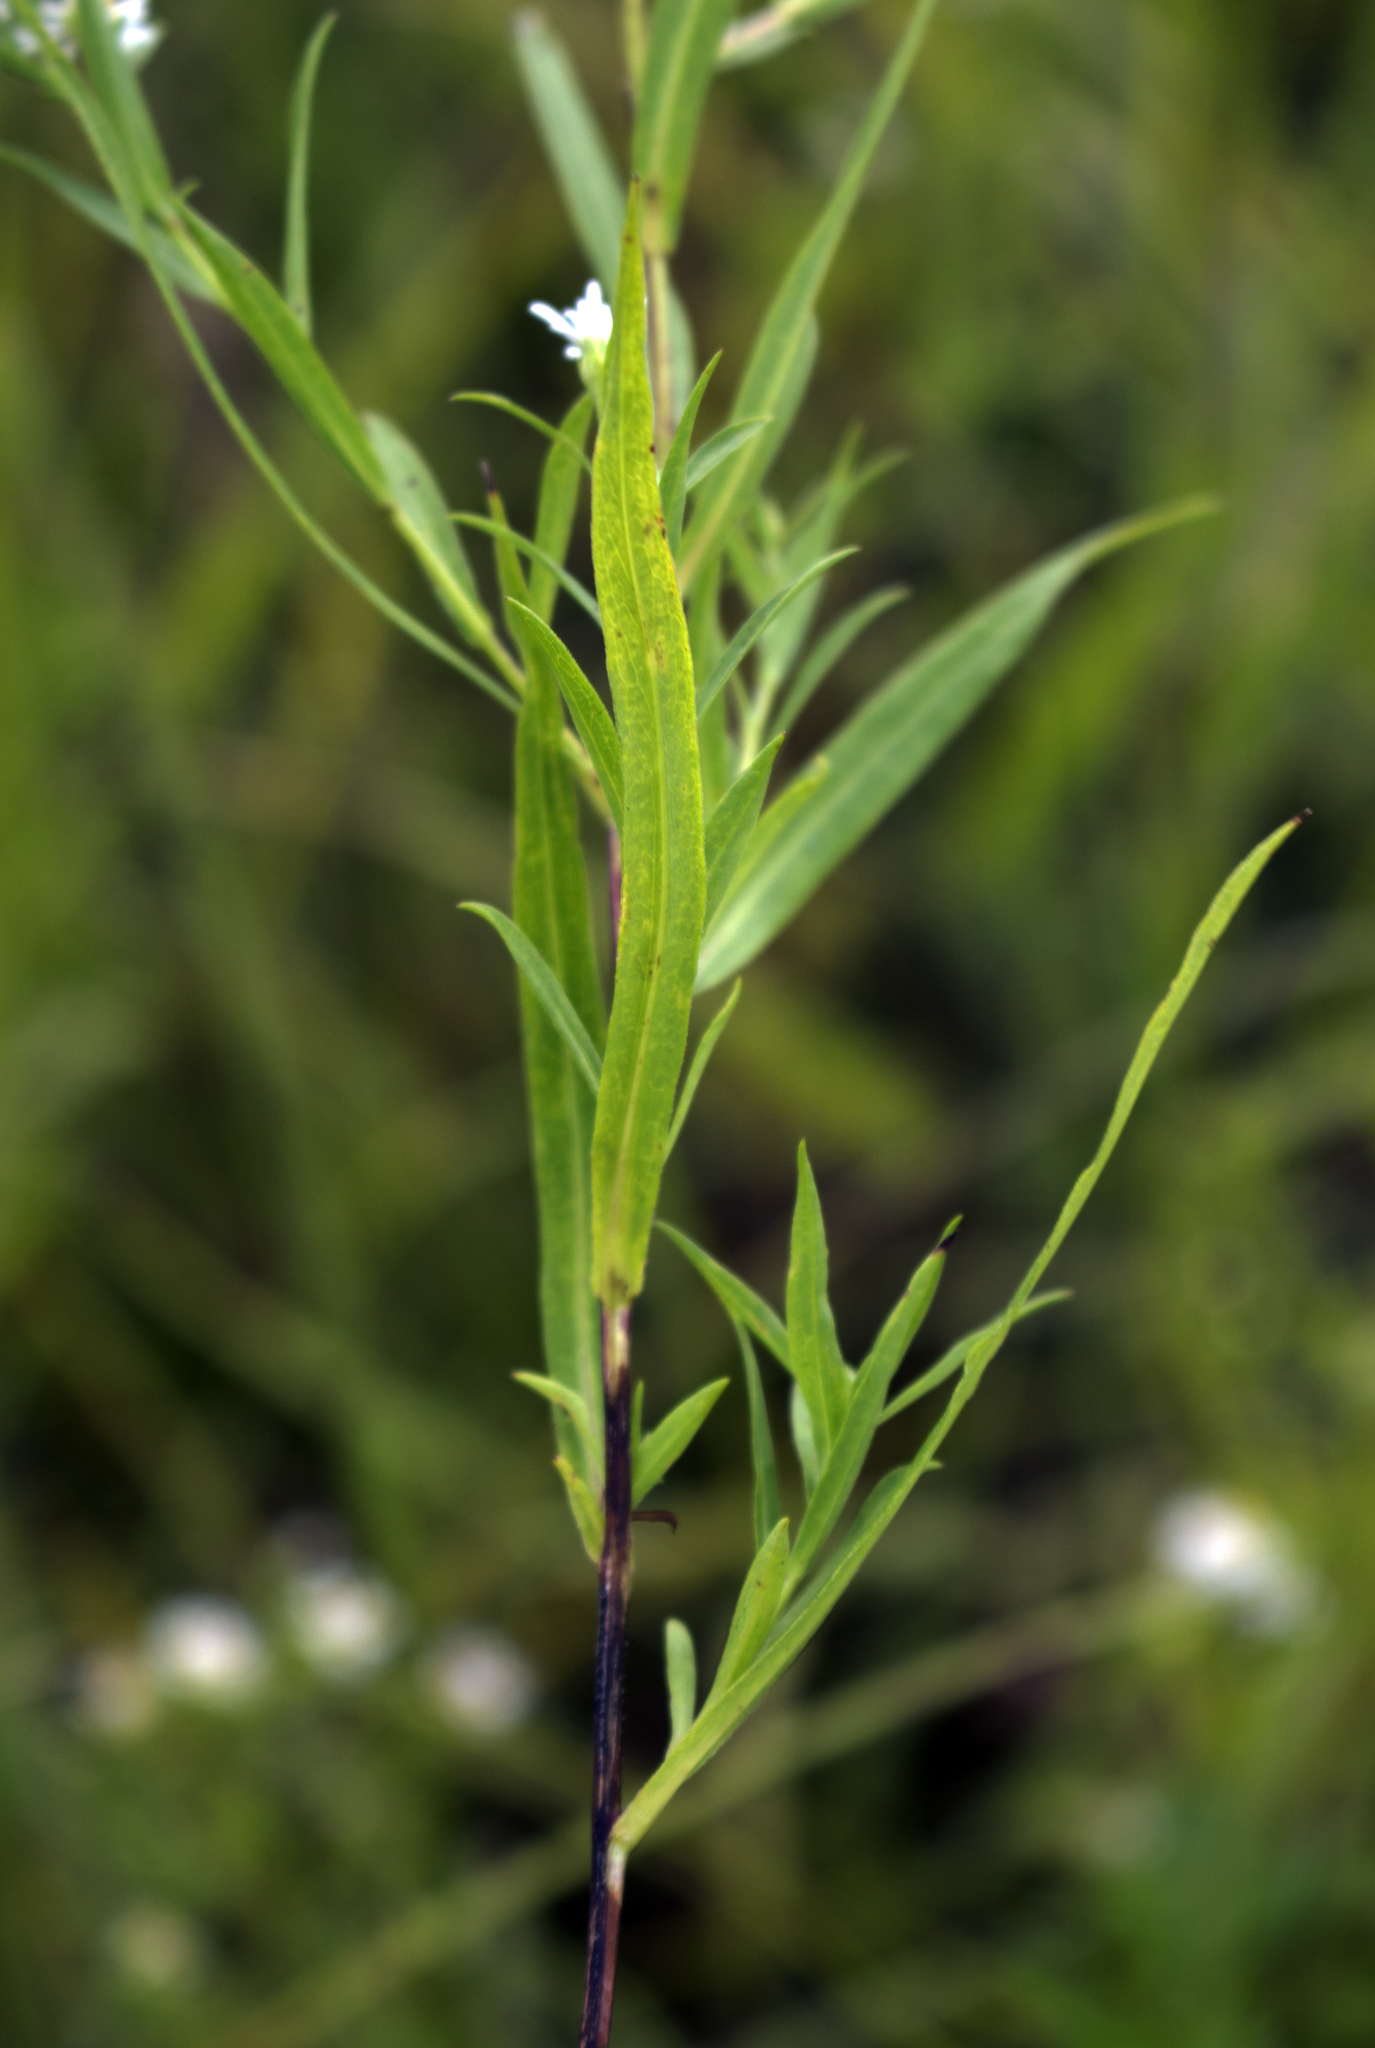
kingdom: Plantae
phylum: Tracheophyta
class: Magnoliopsida
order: Asterales
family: Asteraceae
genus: Symphyotrichum
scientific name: Symphyotrichum lanceolatum
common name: Panicled aster
